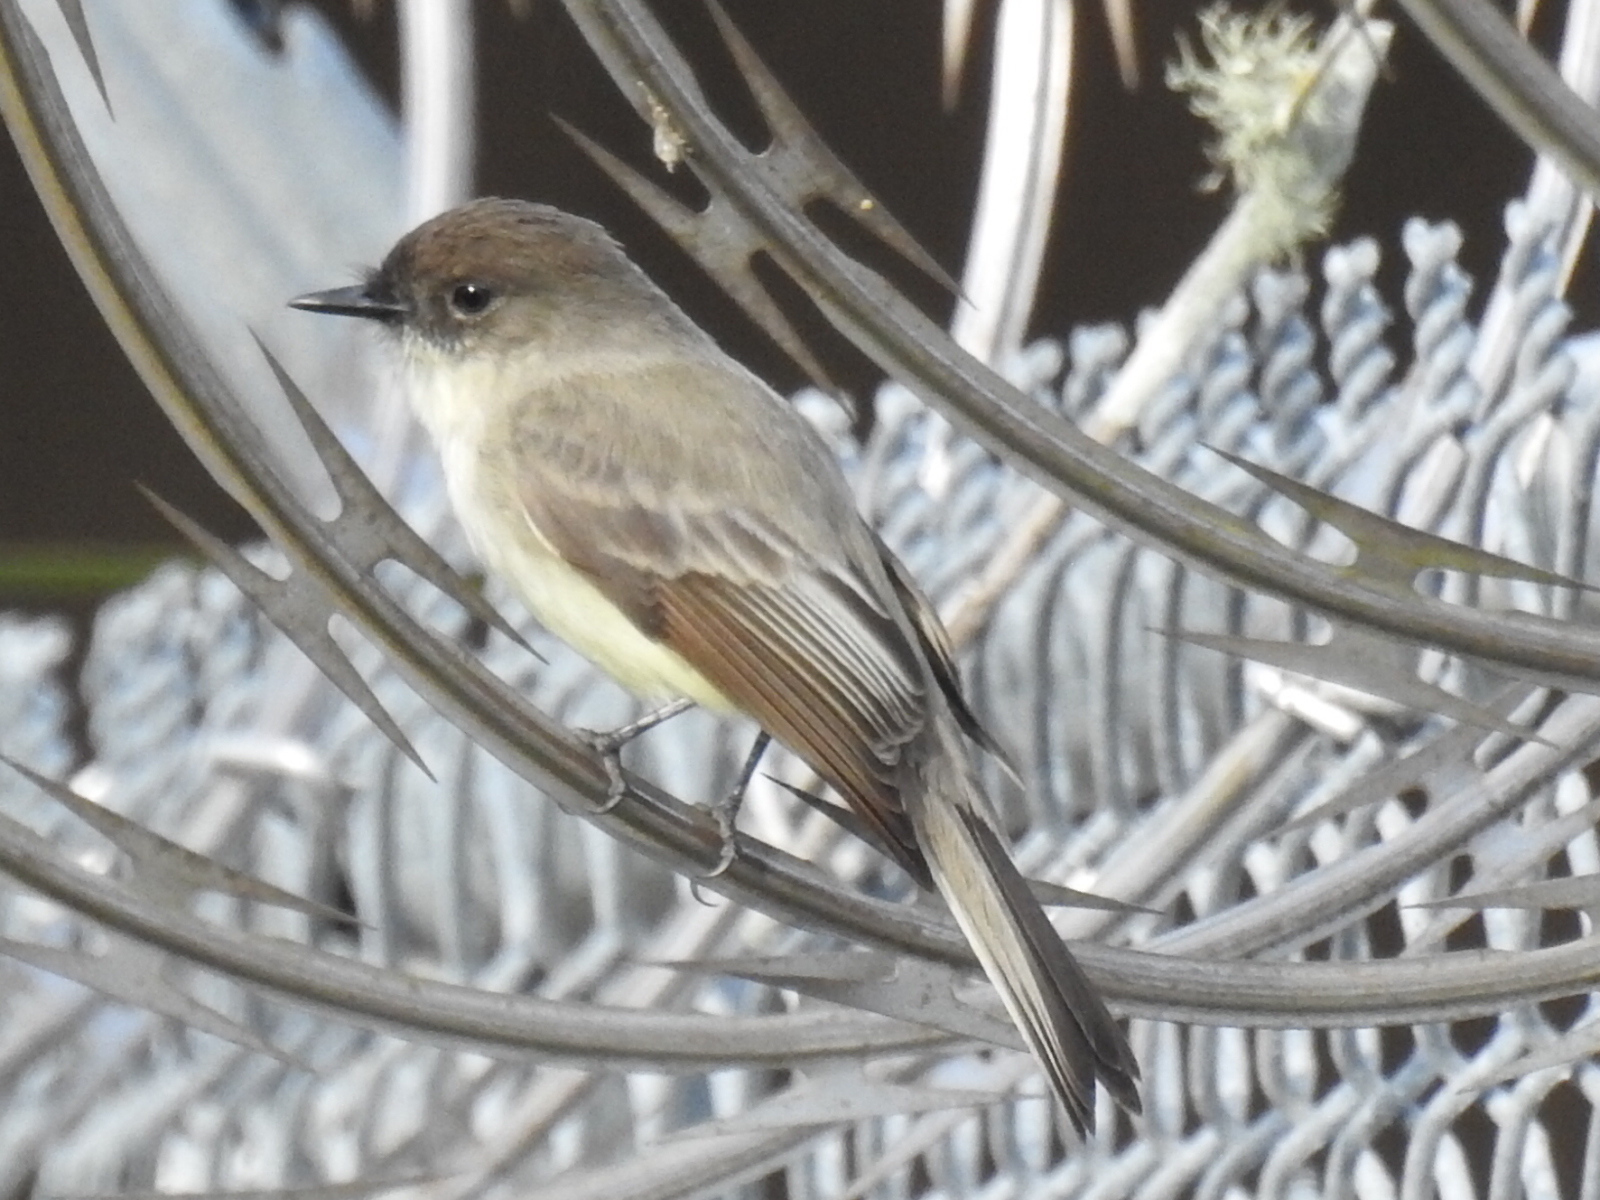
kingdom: Animalia
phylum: Chordata
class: Aves
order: Passeriformes
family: Tyrannidae
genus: Sayornis
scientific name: Sayornis phoebe
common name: Eastern phoebe
